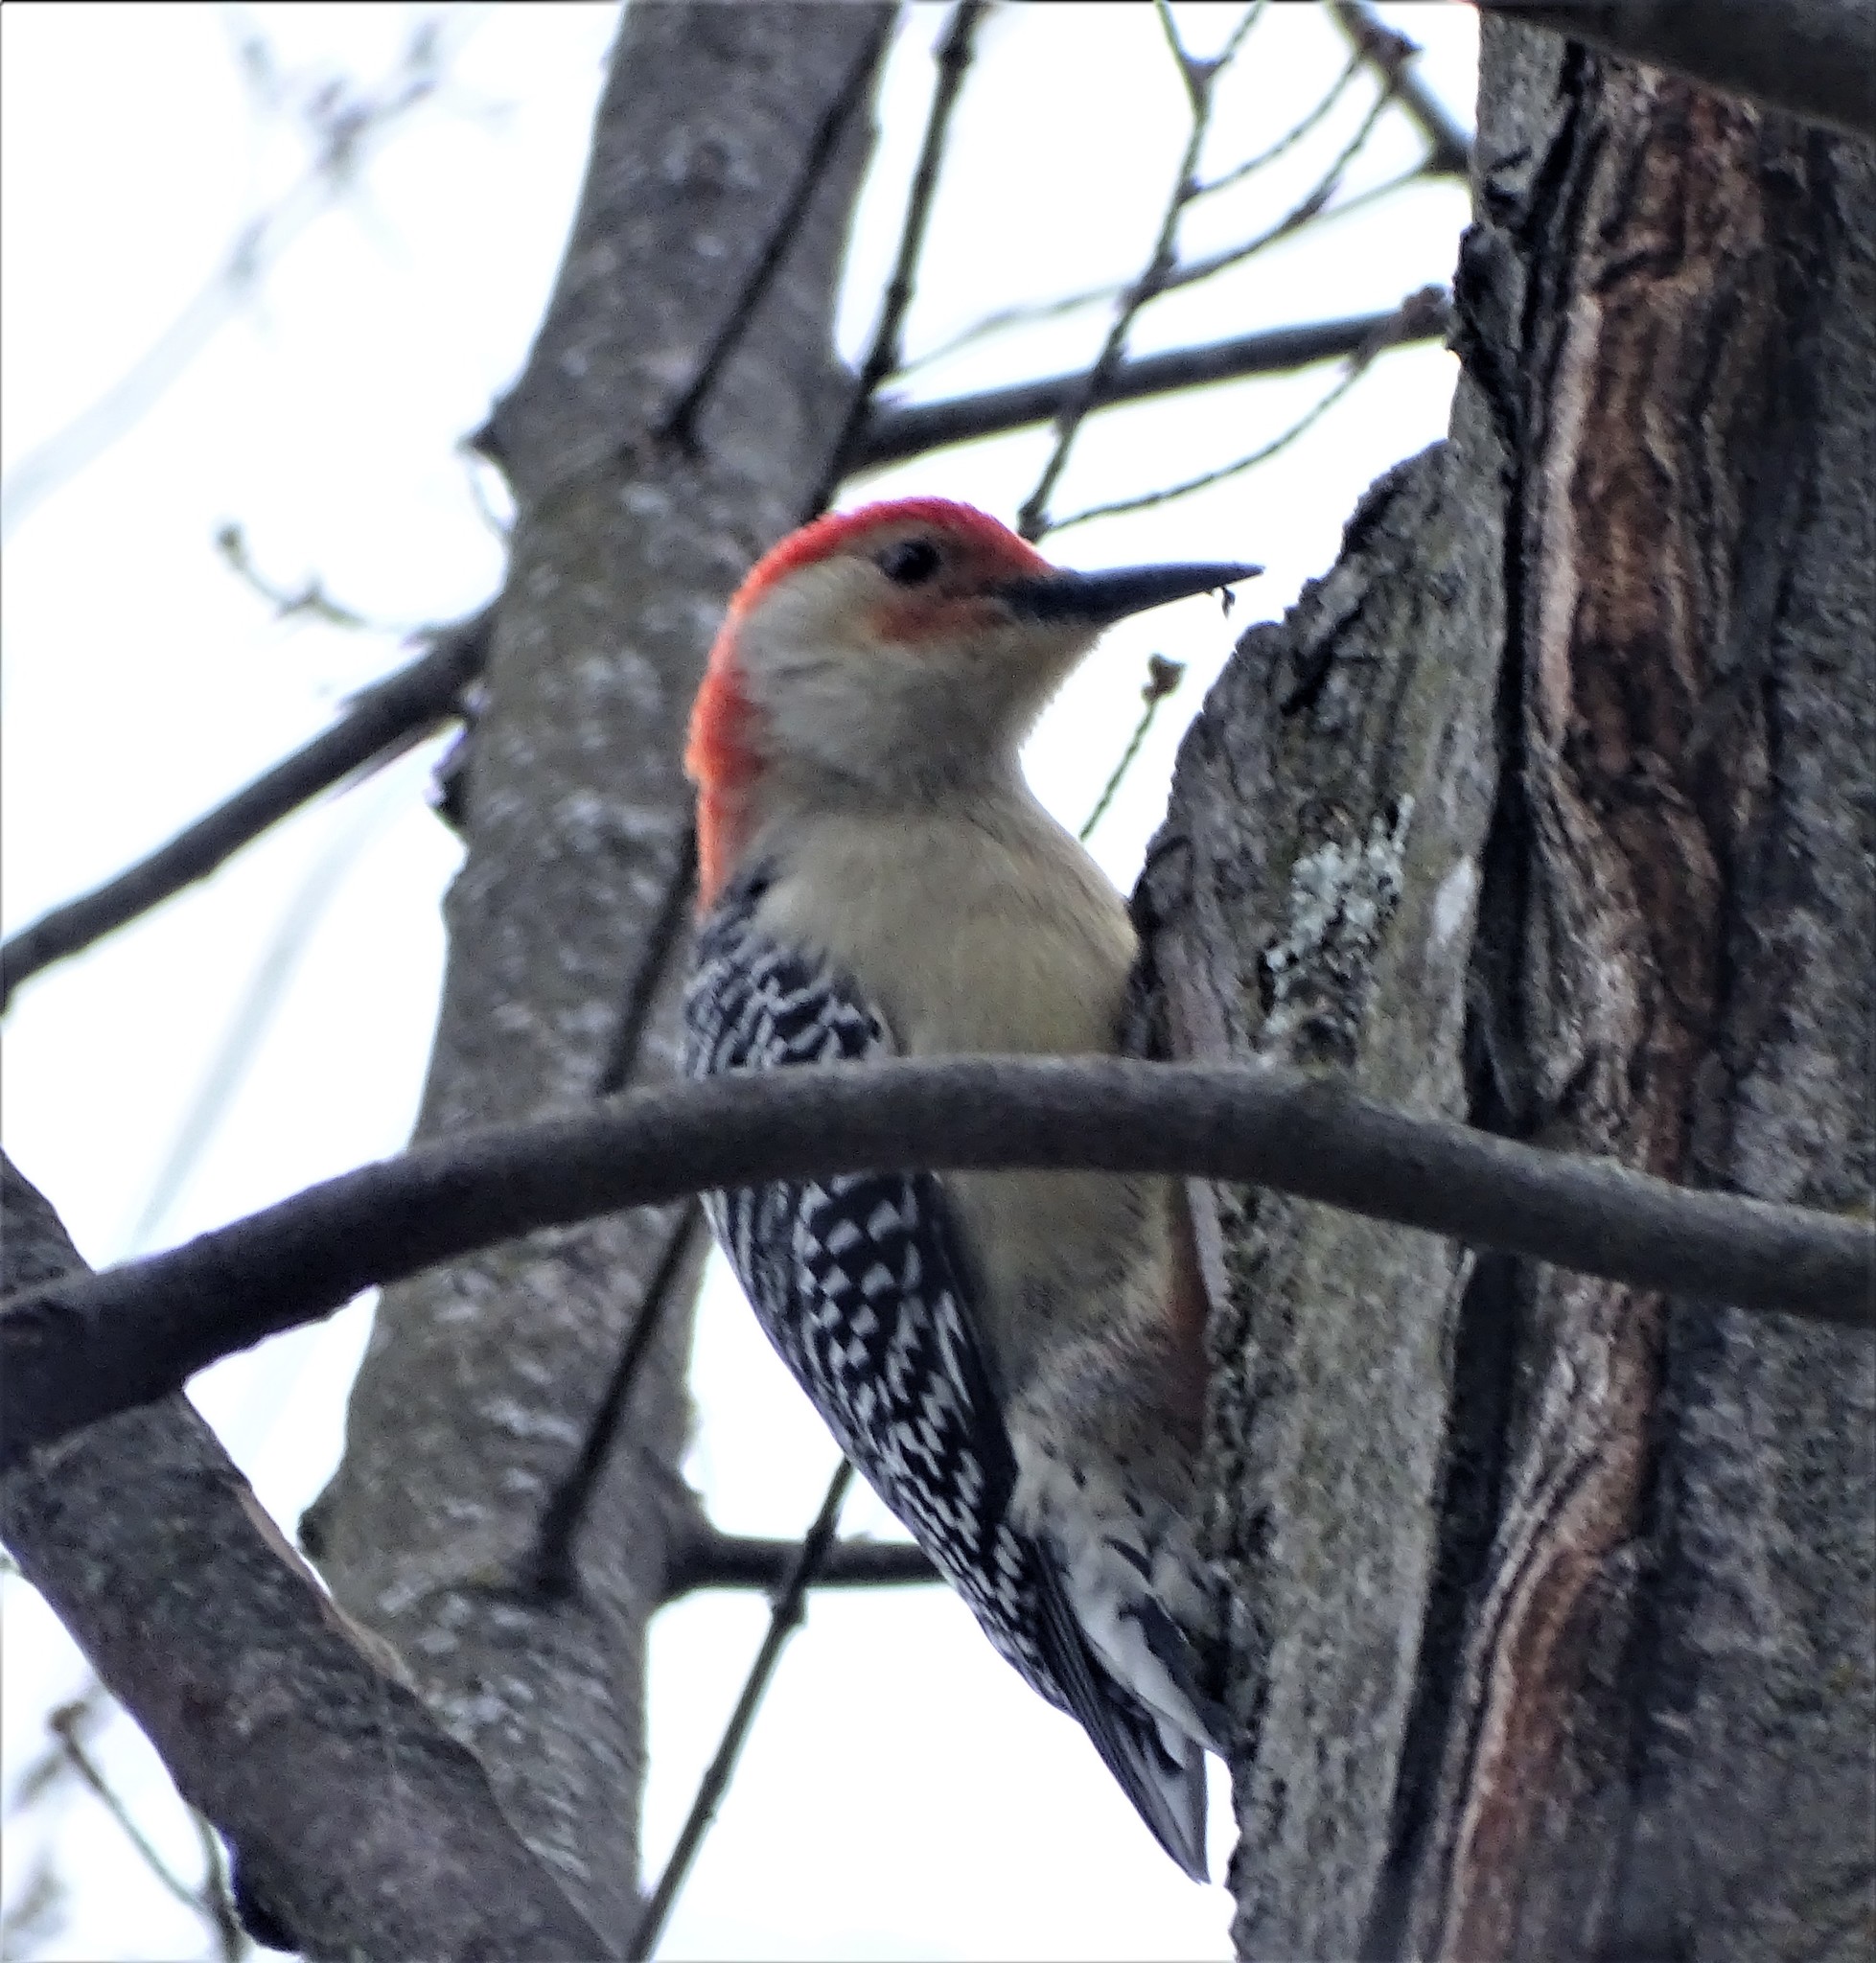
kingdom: Animalia
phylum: Chordata
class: Aves
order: Piciformes
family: Picidae
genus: Melanerpes
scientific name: Melanerpes carolinus
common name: Red-bellied woodpecker
